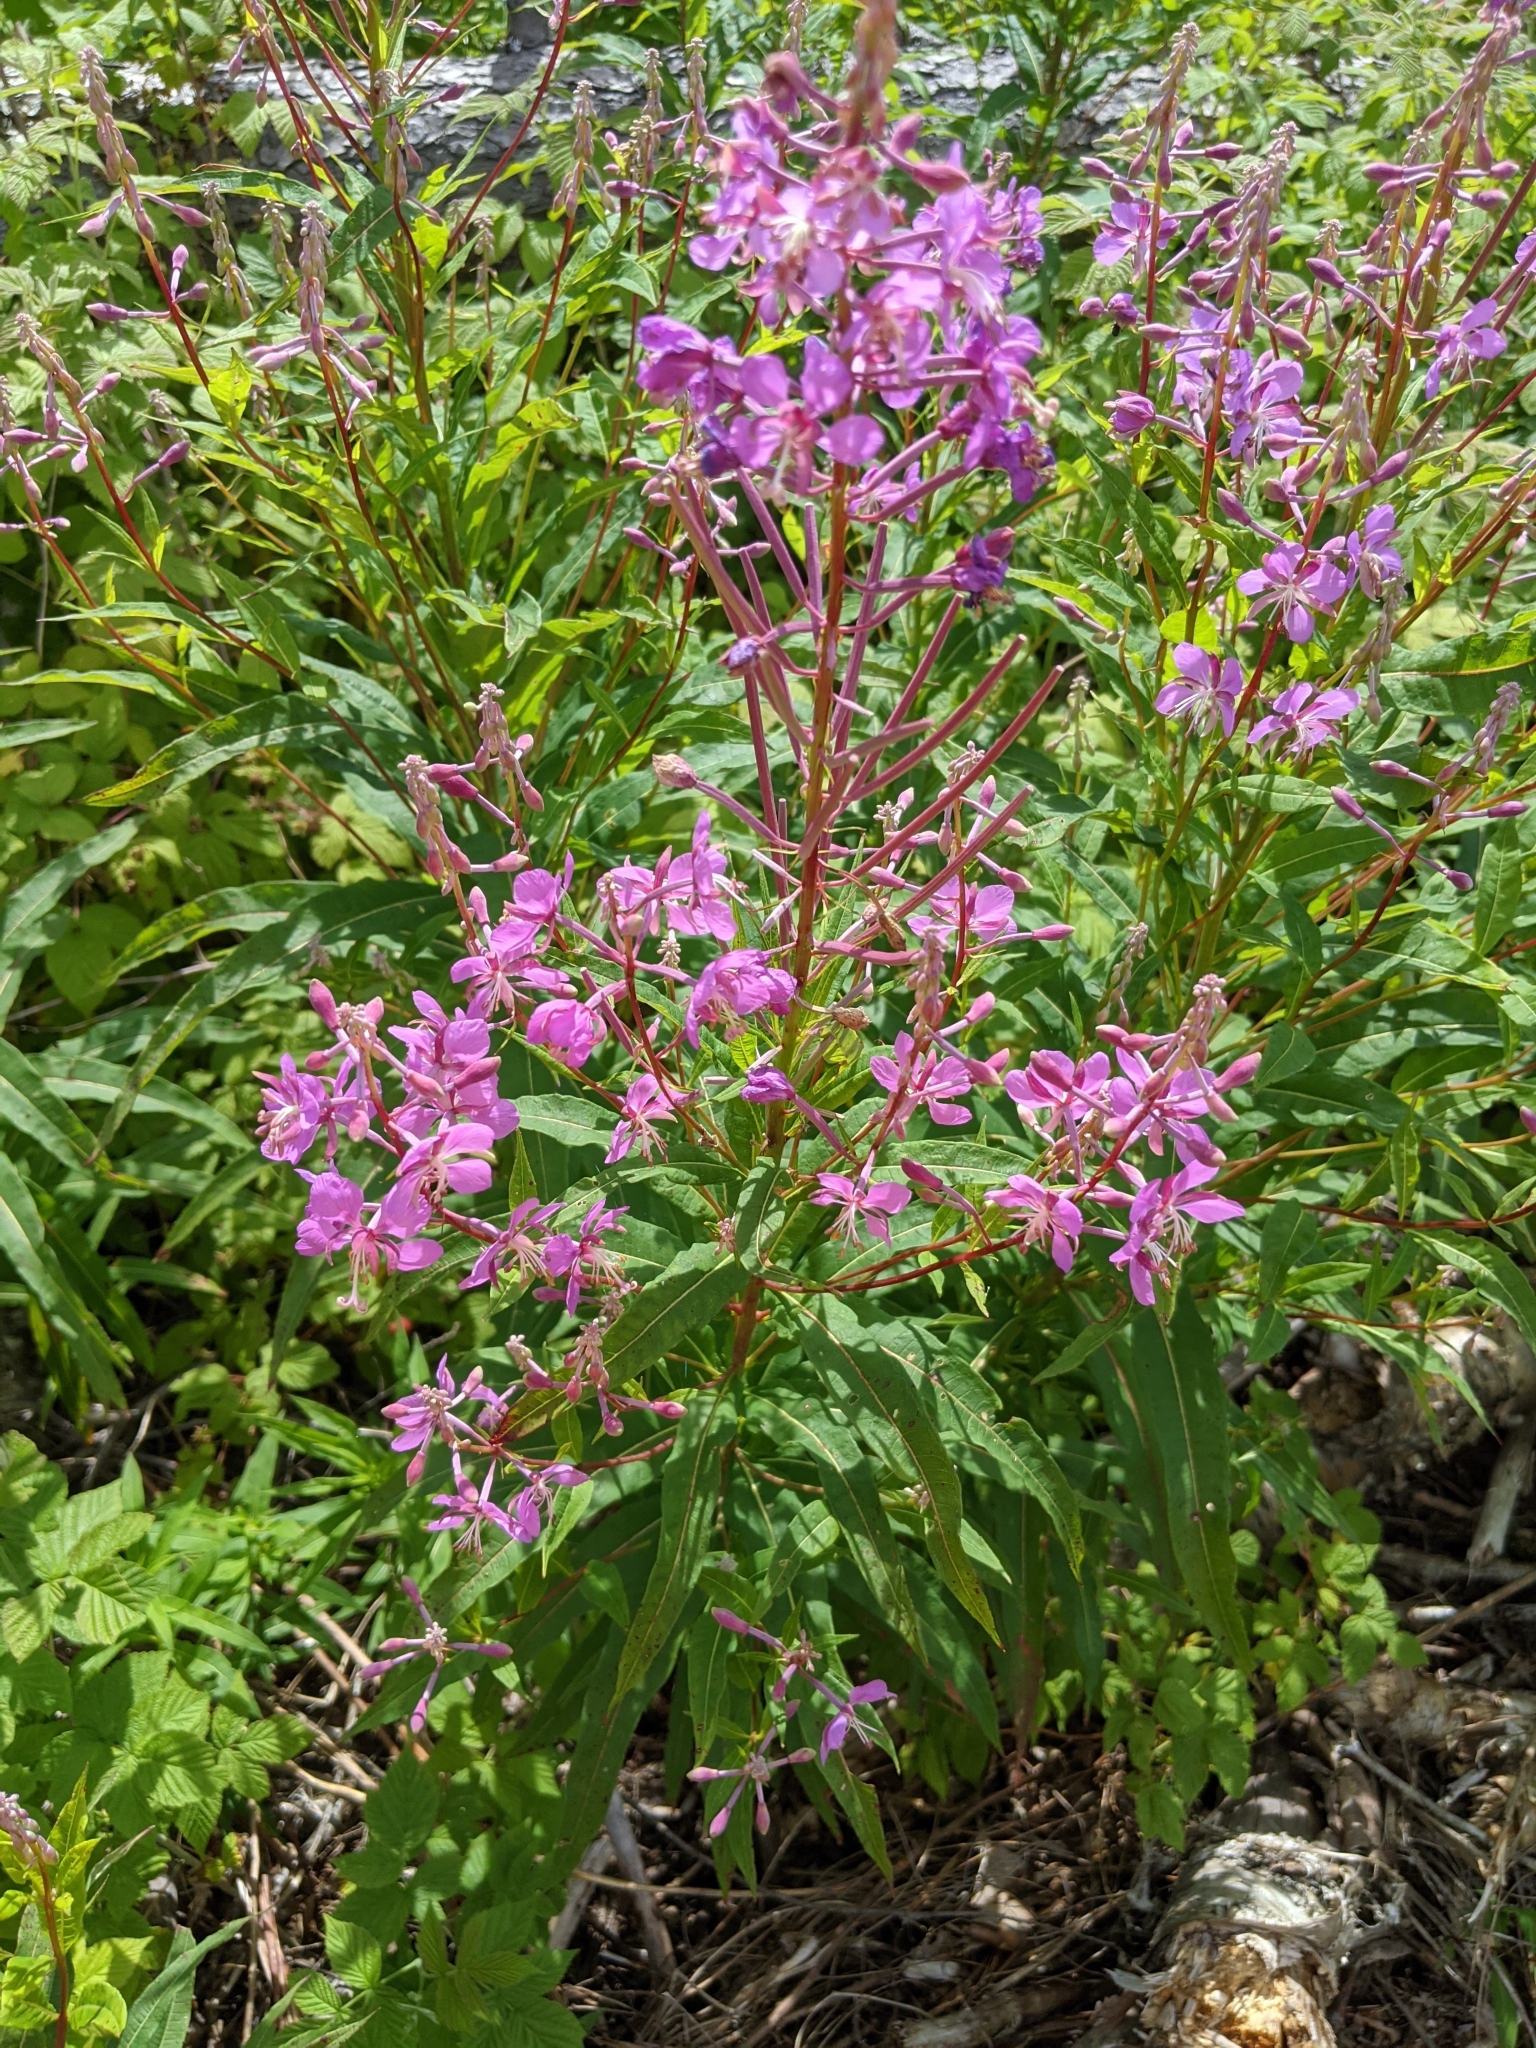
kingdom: Plantae
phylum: Tracheophyta
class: Magnoliopsida
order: Myrtales
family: Onagraceae
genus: Chamaenerion
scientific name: Chamaenerion angustifolium
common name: Fireweed
